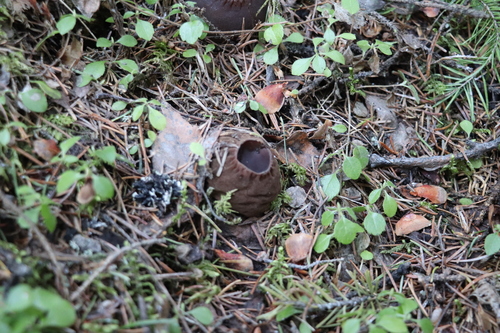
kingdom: Fungi
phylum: Ascomycota
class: Pezizomycetes
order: Pezizales
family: Sarcosomataceae
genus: Sarcosoma
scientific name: Sarcosoma globosum
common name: Charred-pancake cup
